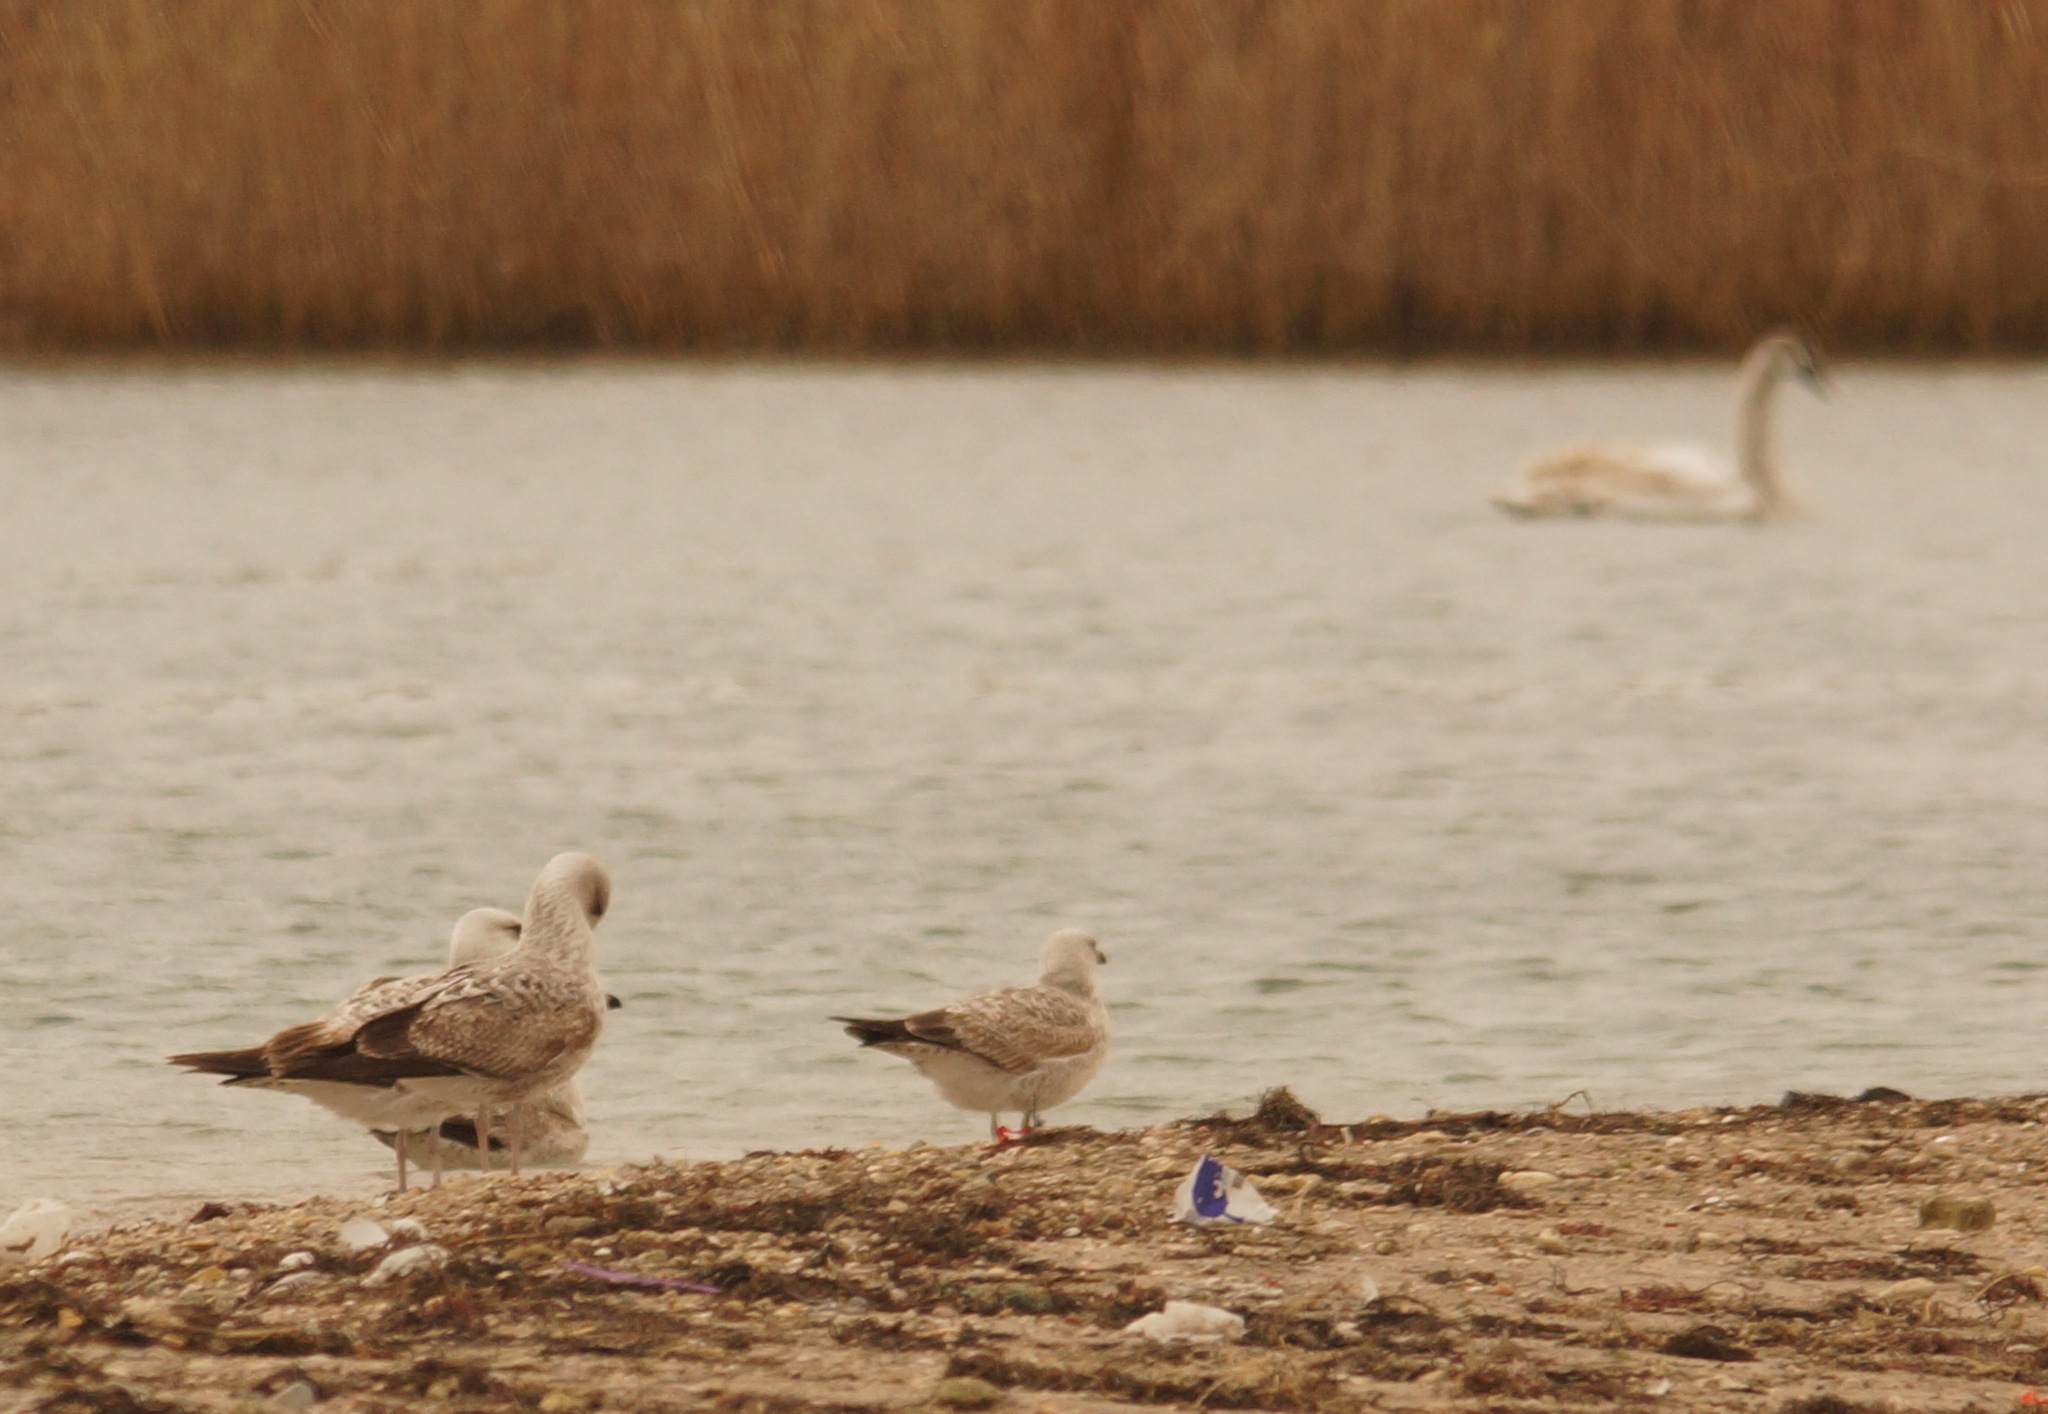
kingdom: Animalia
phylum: Chordata
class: Aves
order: Charadriiformes
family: Laridae
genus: Larus
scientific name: Larus michahellis
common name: Yellow-legged gull
